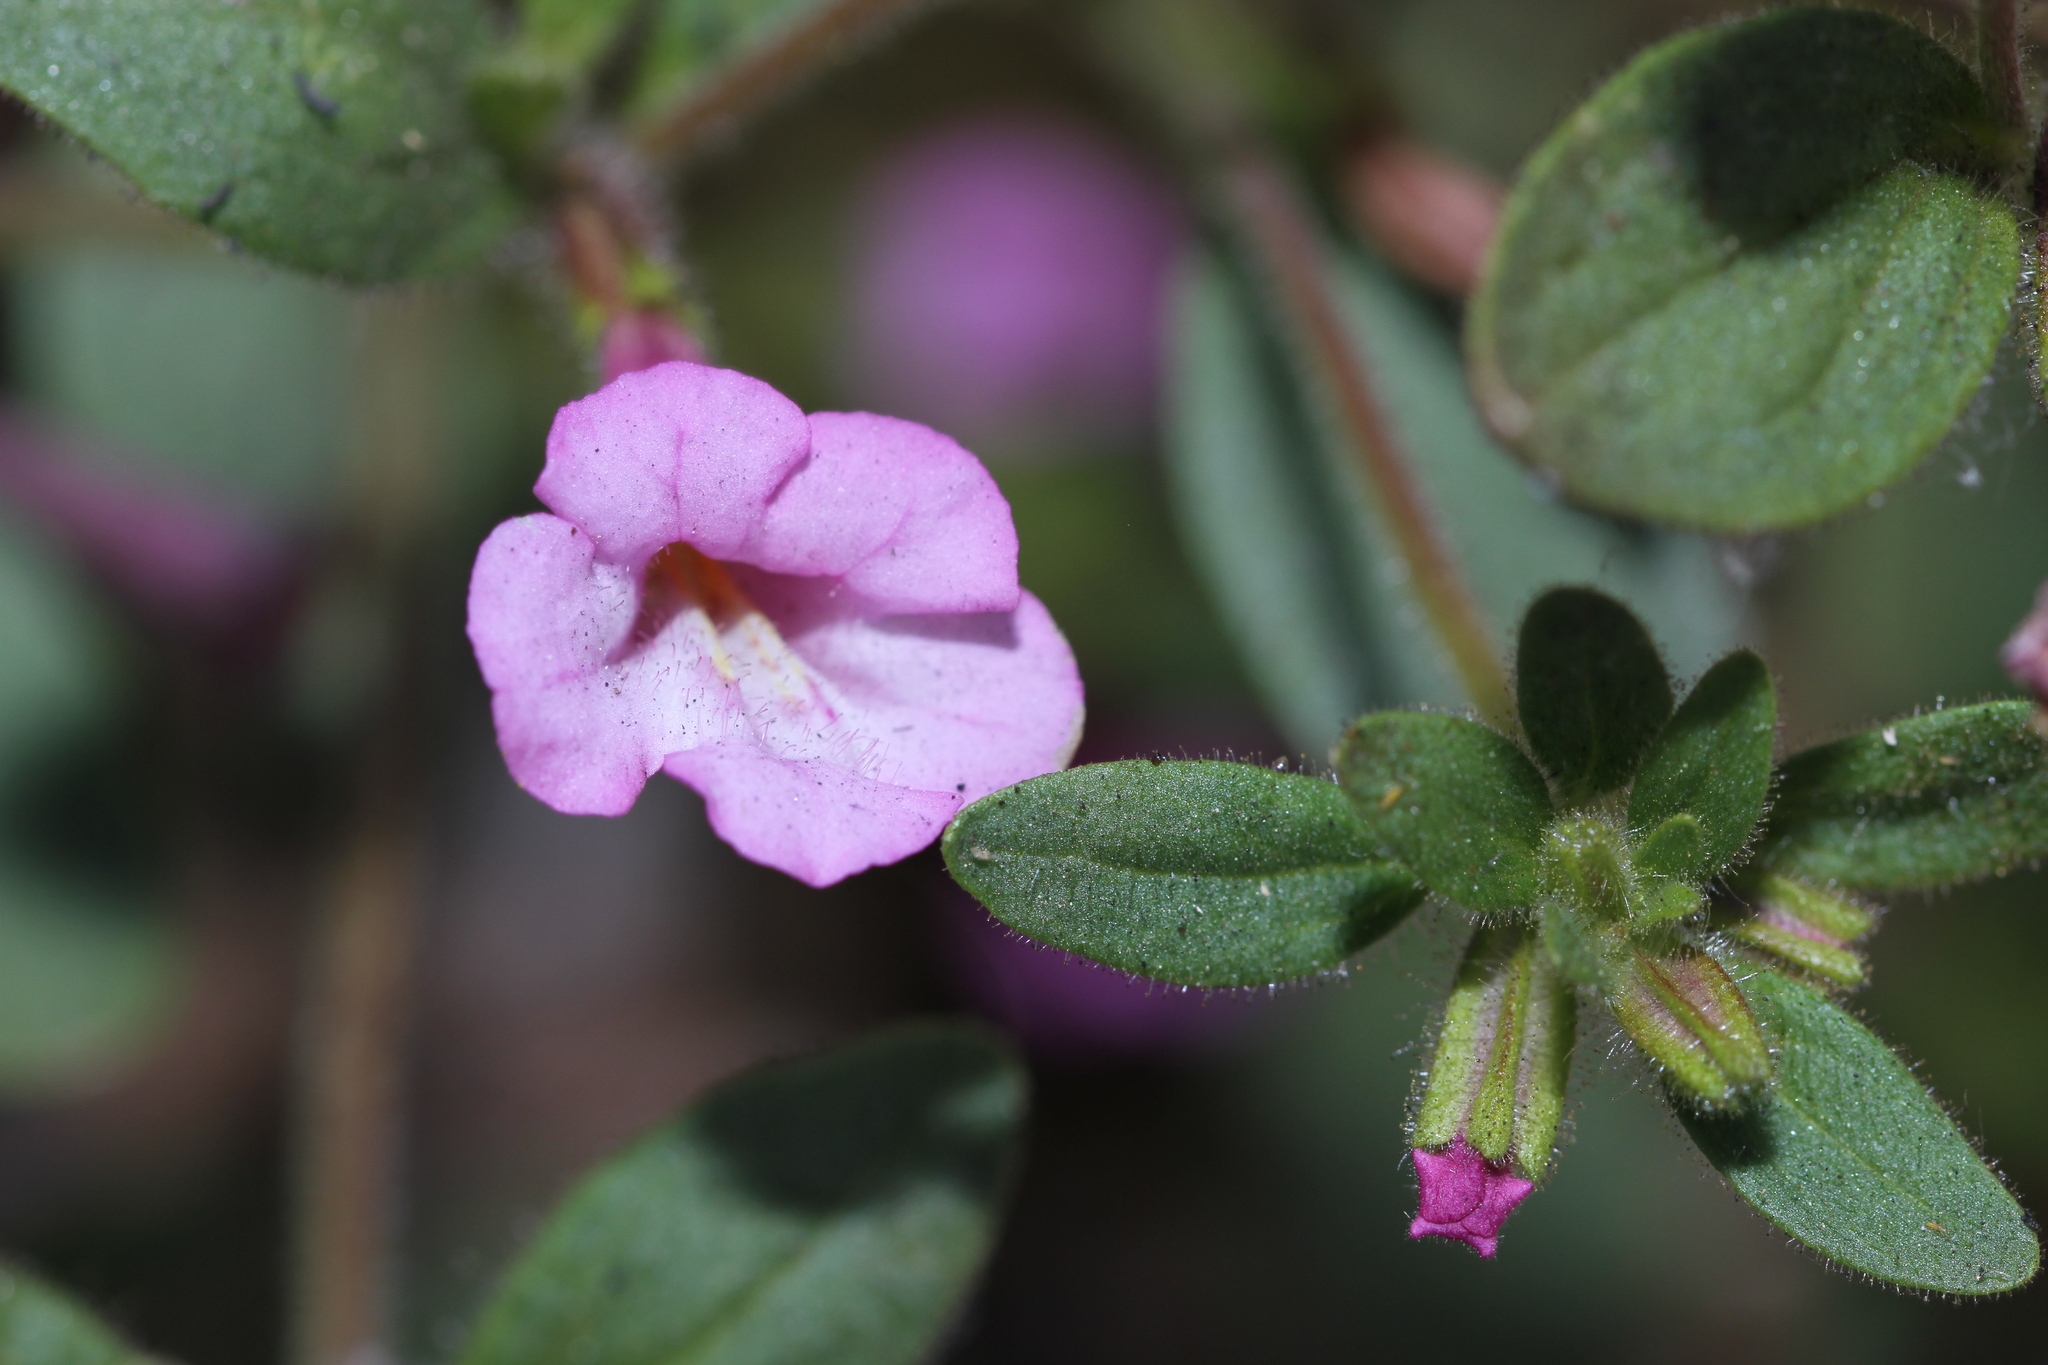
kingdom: Plantae
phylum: Tracheophyta
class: Magnoliopsida
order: Lamiales
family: Phrymaceae
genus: Diplacus
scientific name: Diplacus torreyi
